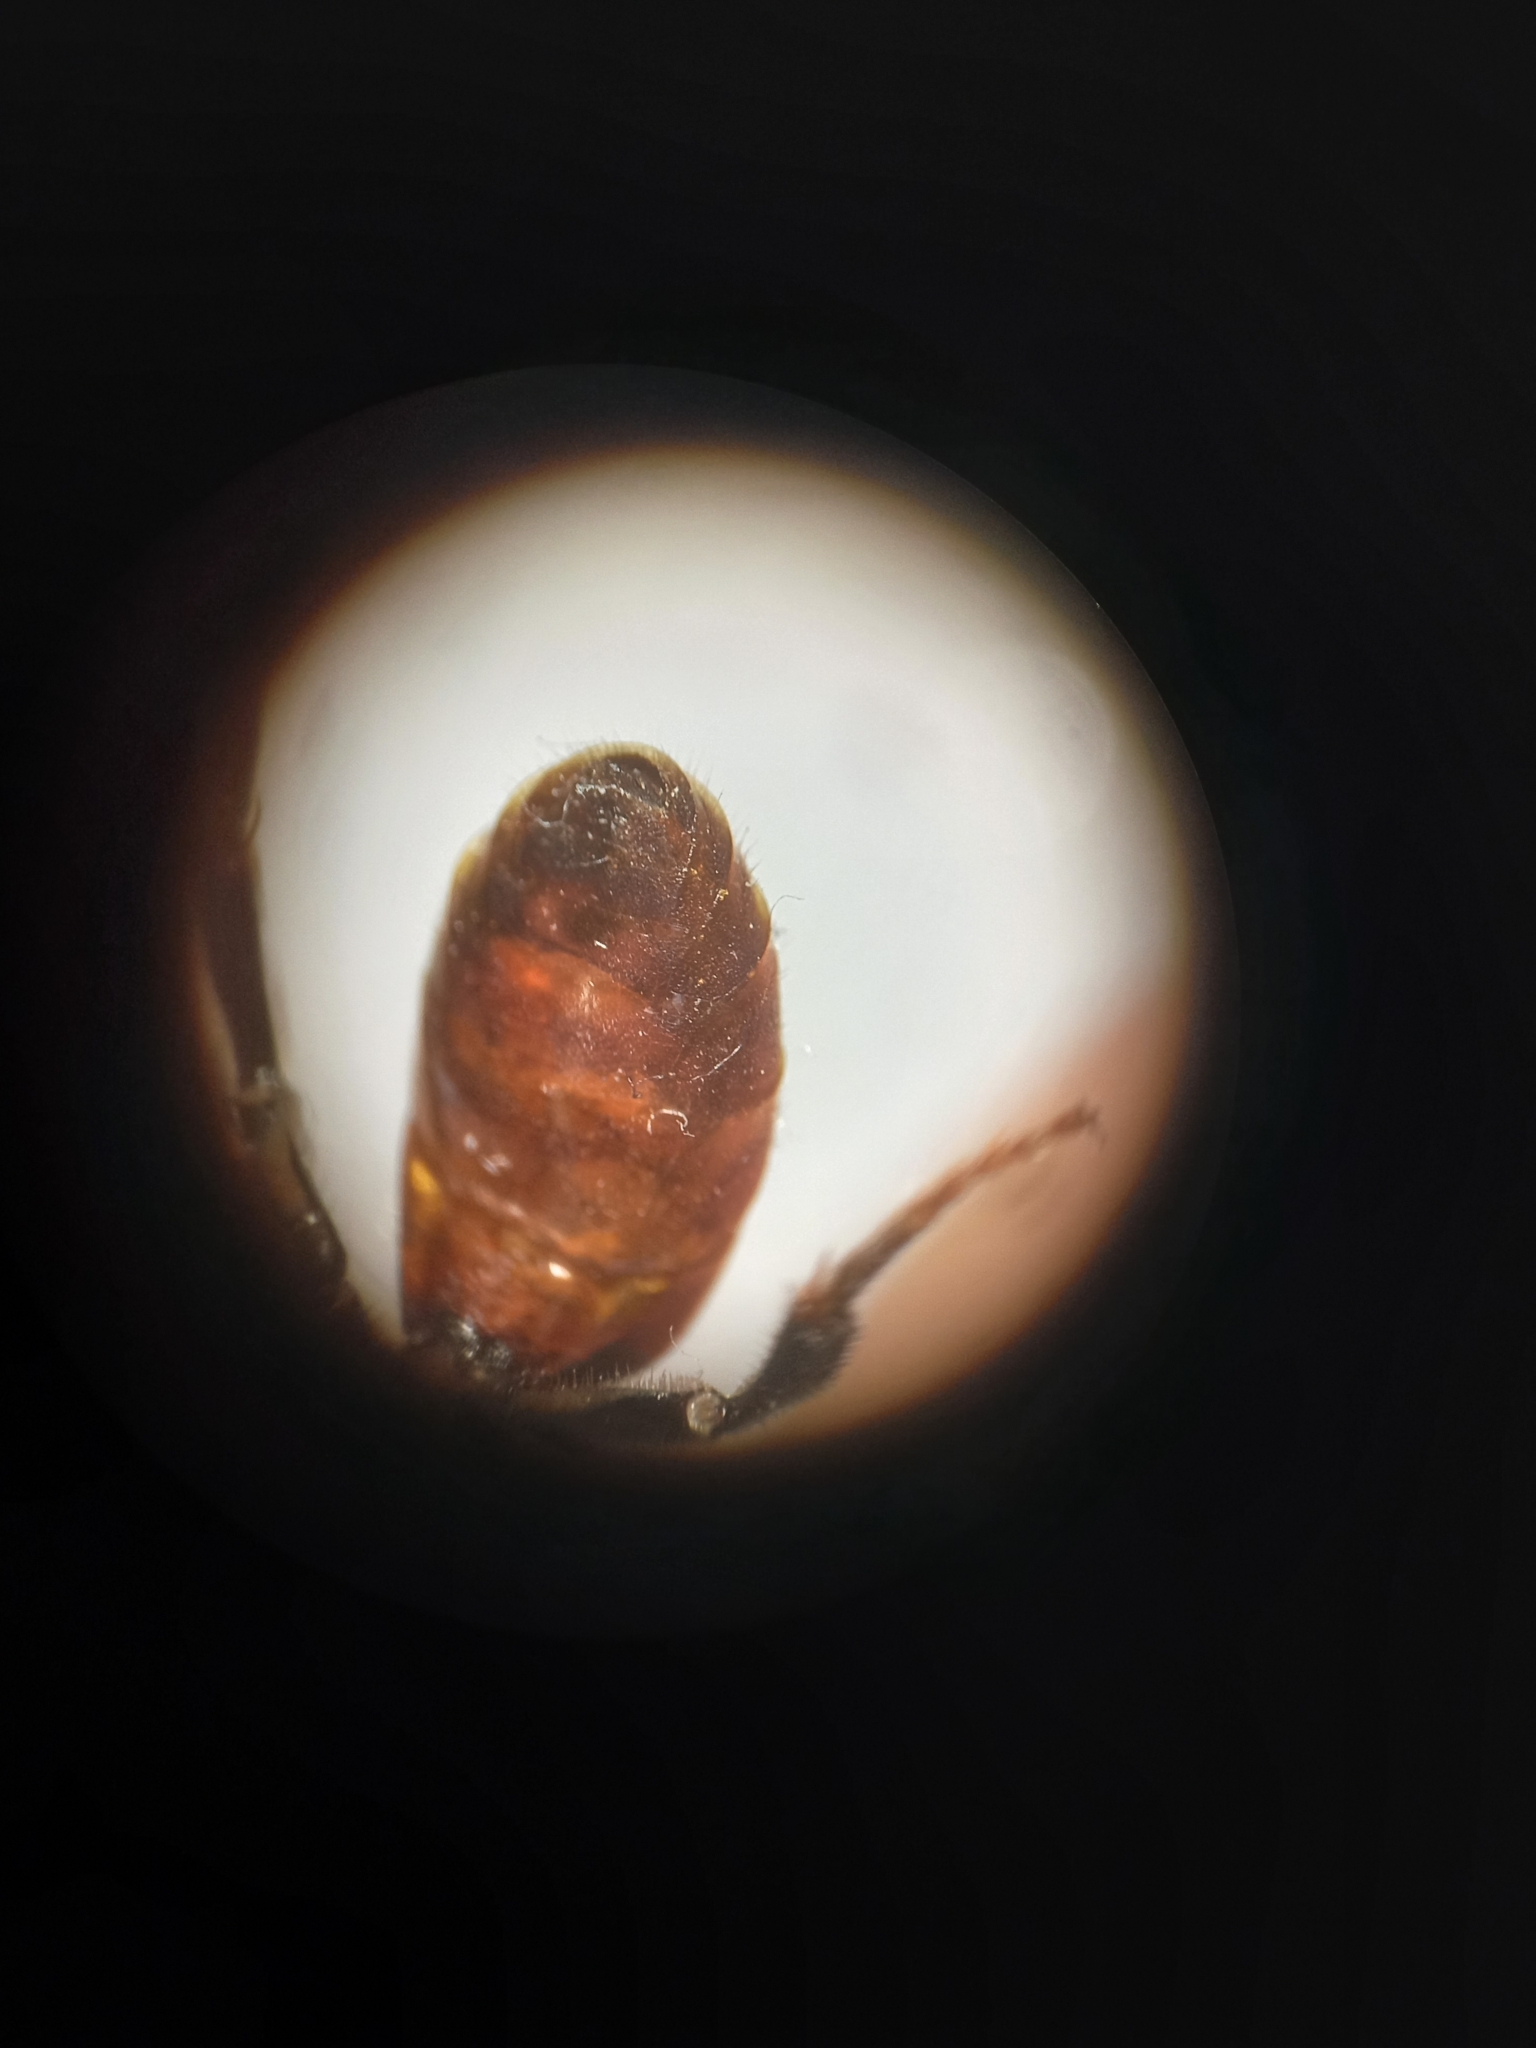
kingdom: Animalia
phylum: Arthropoda
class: Insecta
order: Hymenoptera
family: Halictidae
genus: Sphecodes
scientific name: Sphecodes albilabris
